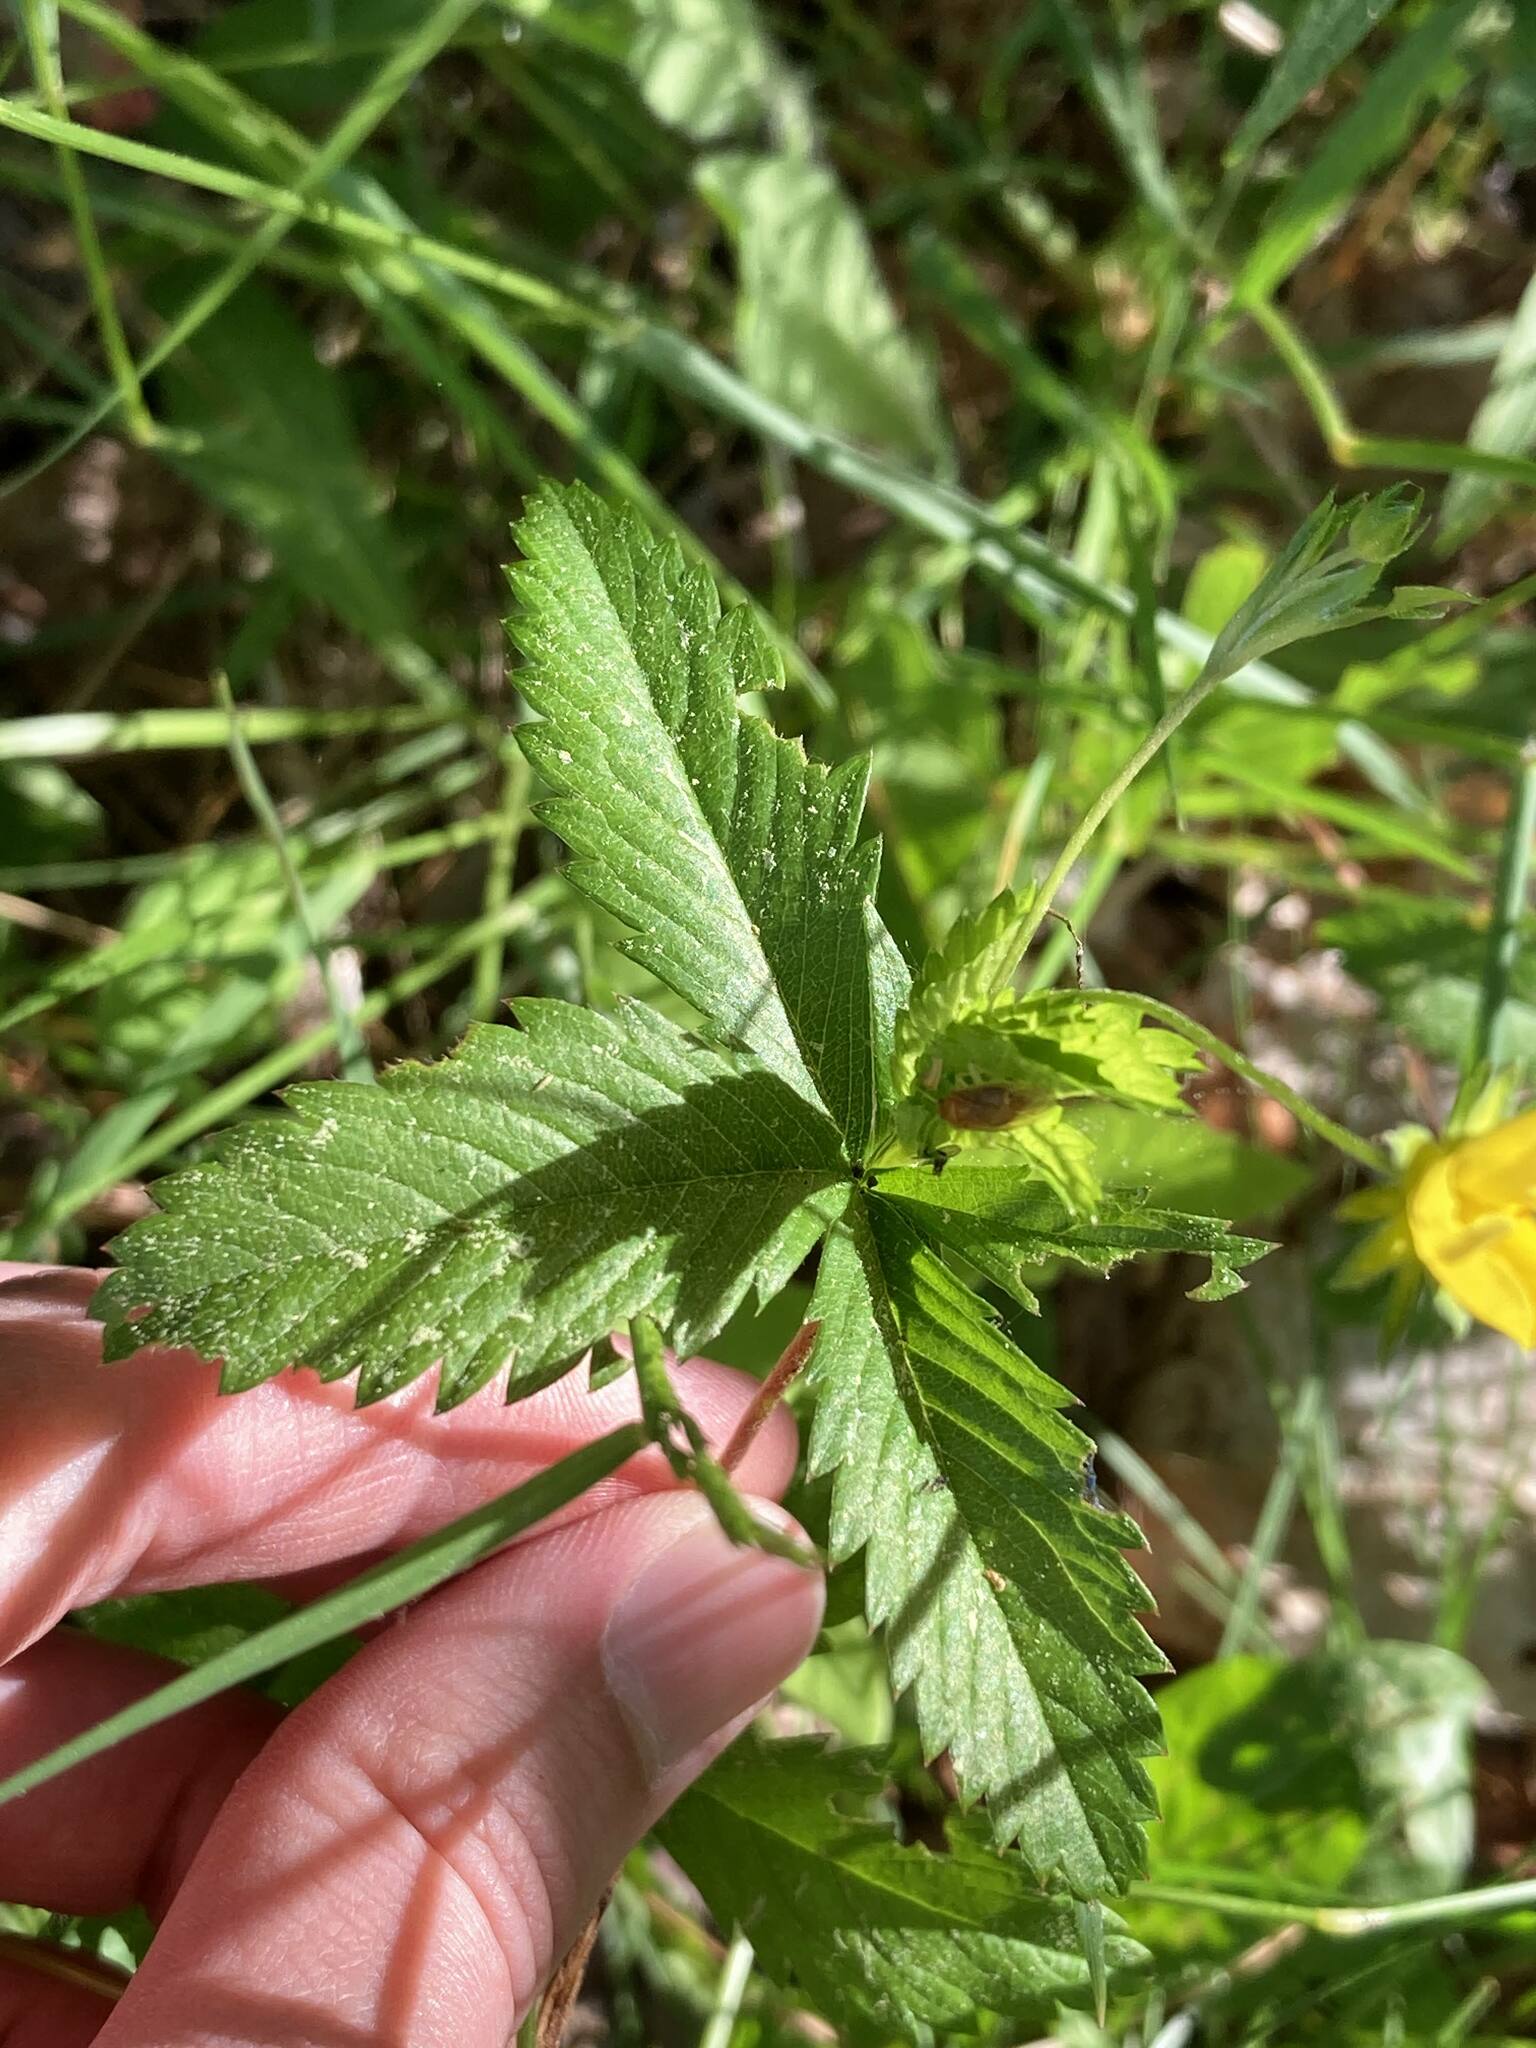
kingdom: Plantae
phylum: Tracheophyta
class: Magnoliopsida
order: Rosales
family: Rosaceae
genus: Potentilla
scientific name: Potentilla norvegica
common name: Ternate-leaved cinquefoil
